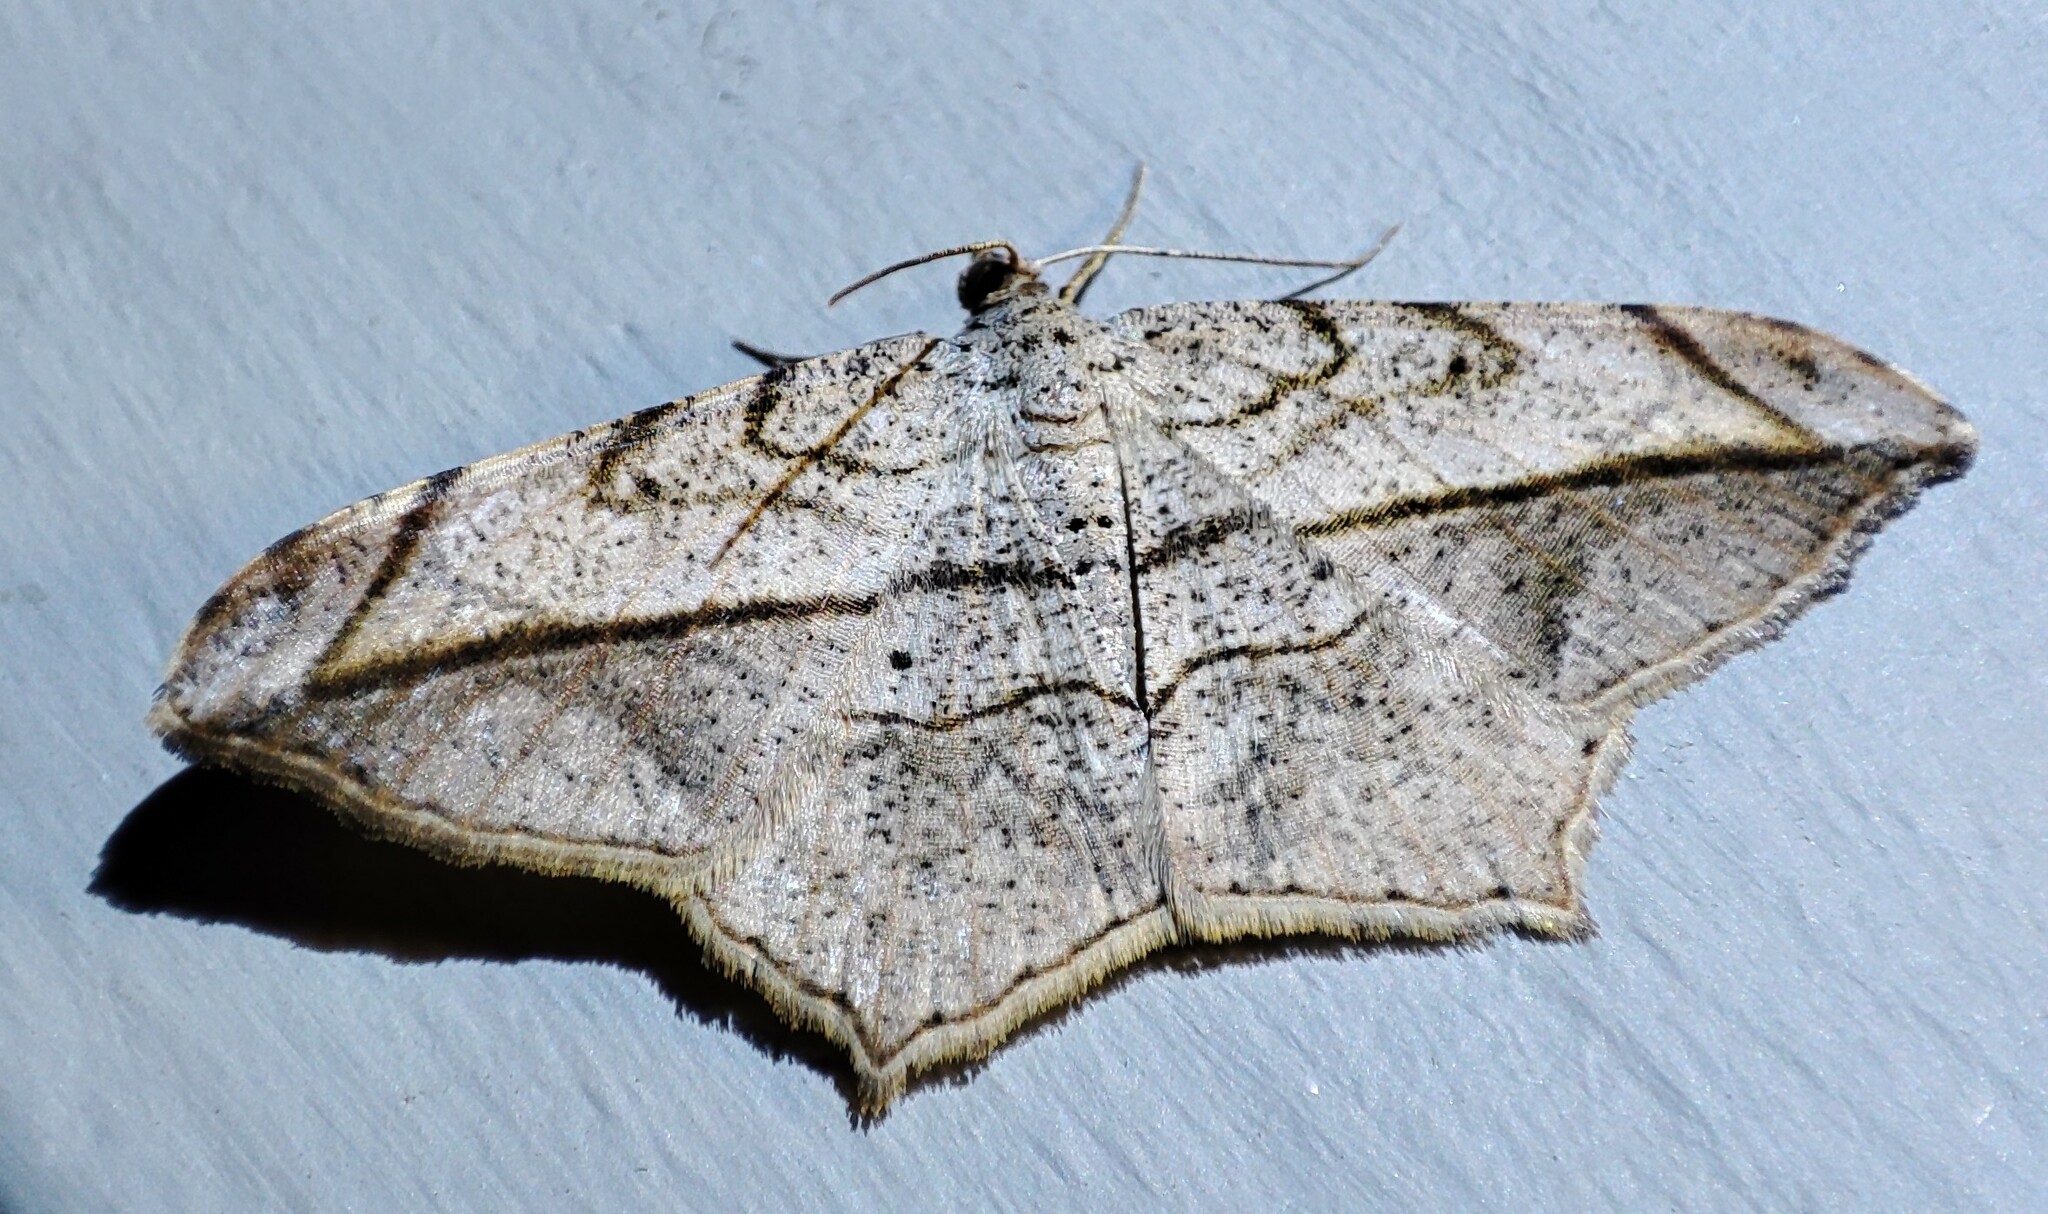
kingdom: Animalia
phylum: Arthropoda
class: Insecta
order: Lepidoptera
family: Geometridae
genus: Chiasmia
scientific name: Chiasmia simplicilinea
